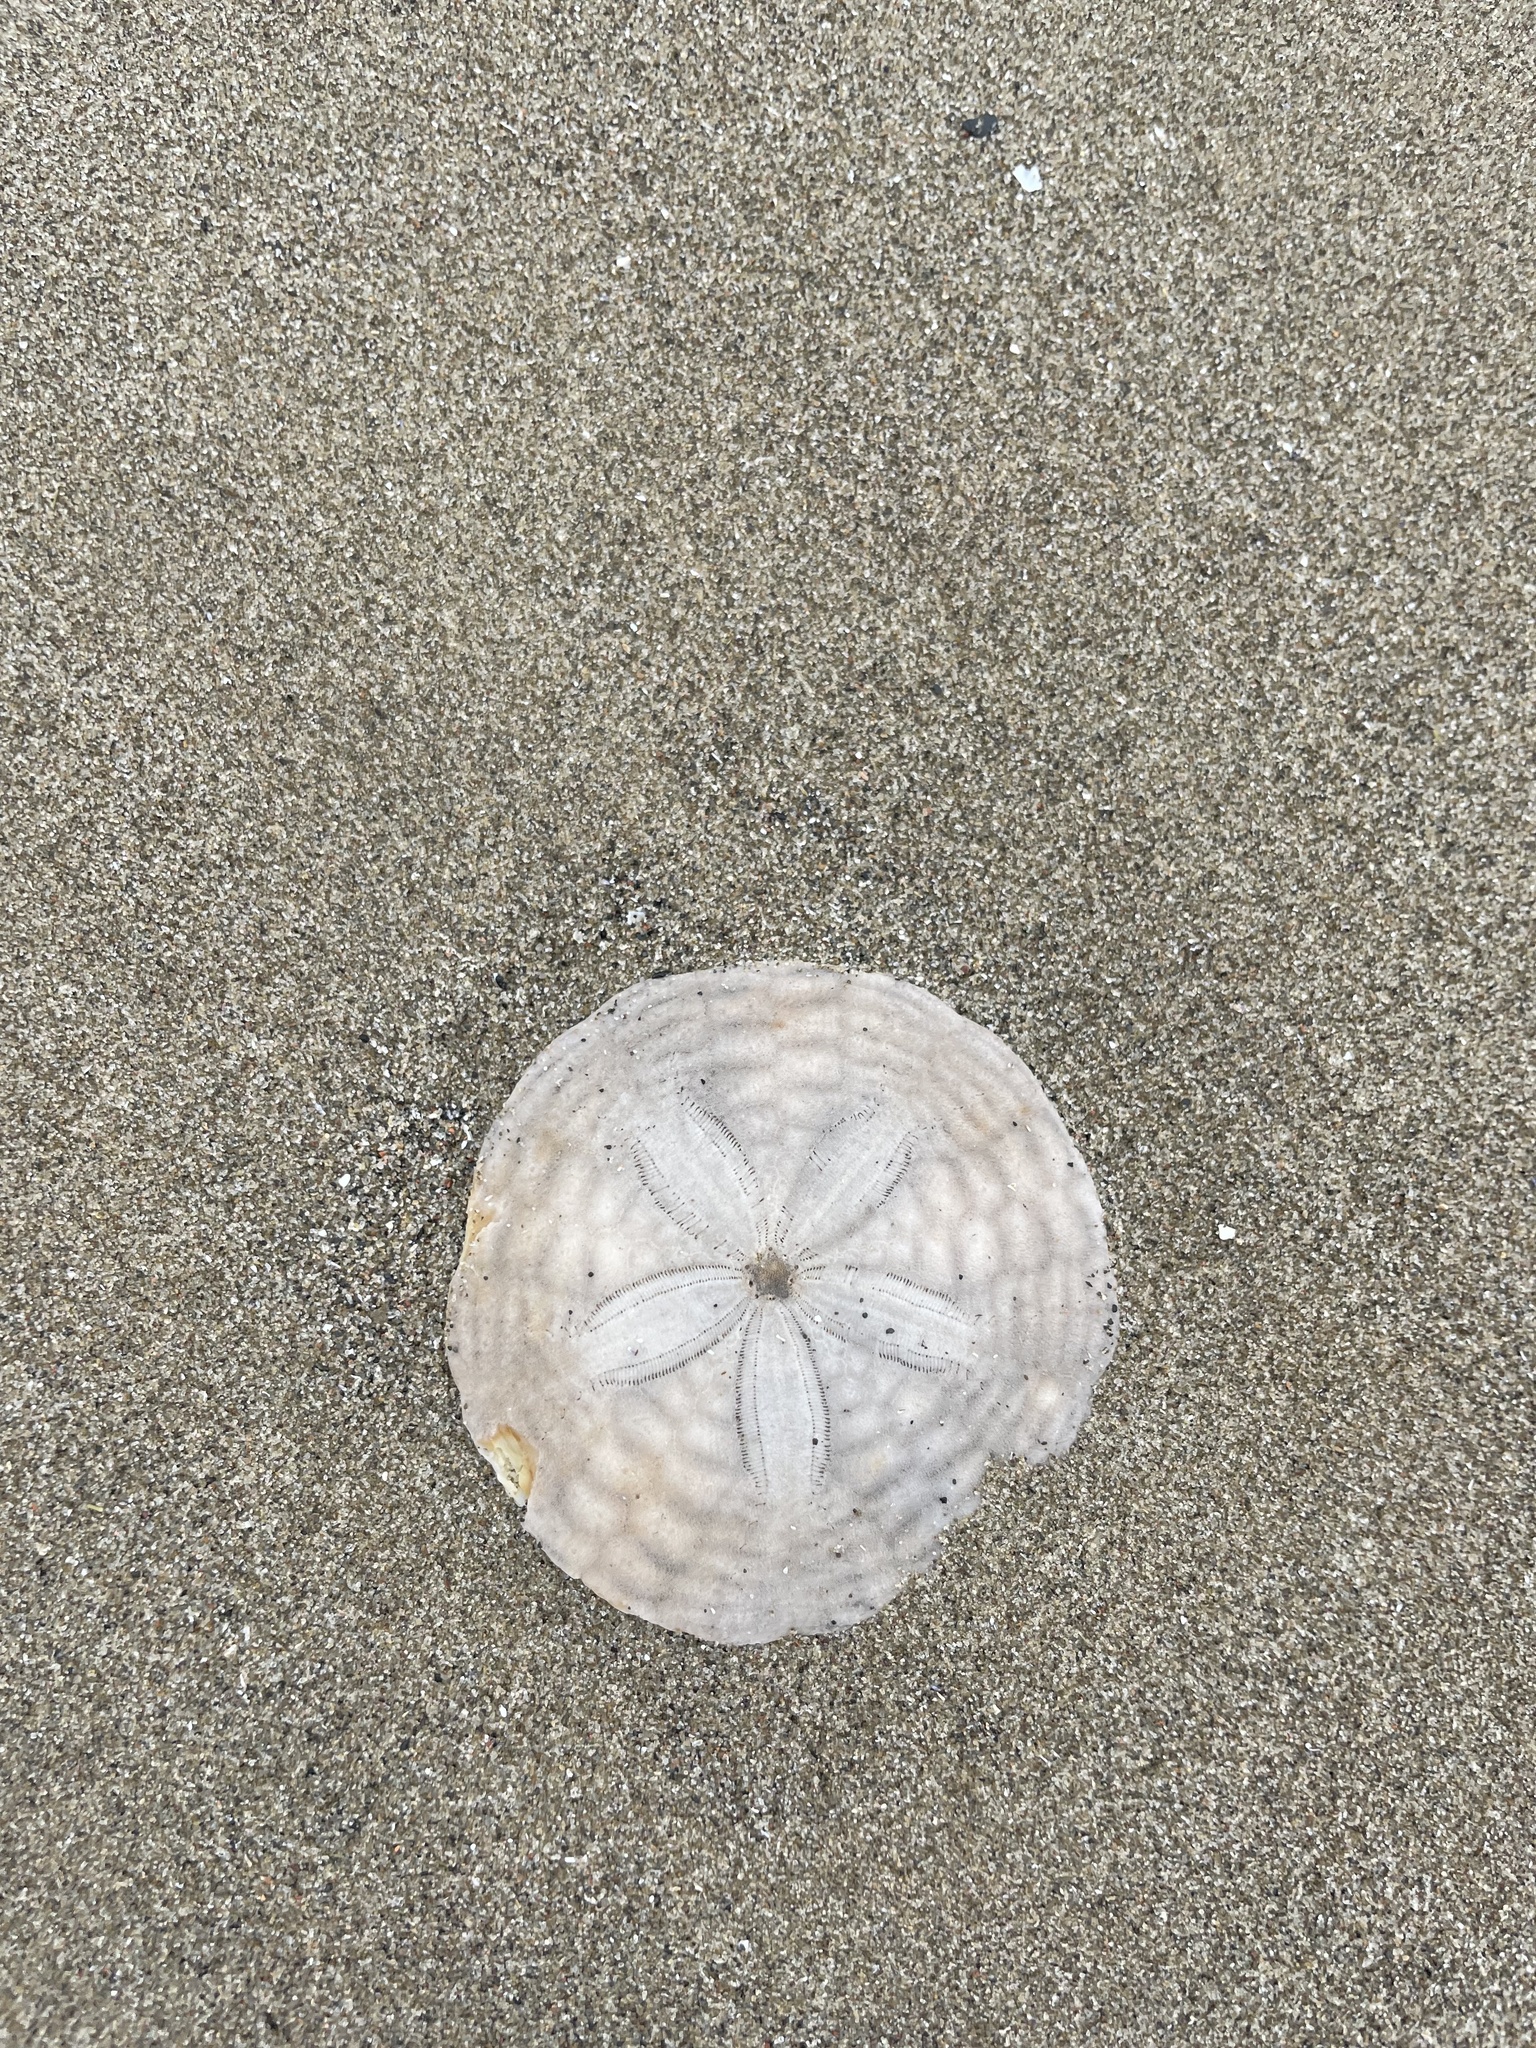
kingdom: Animalia
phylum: Echinodermata
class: Echinoidea
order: Echinolampadacea
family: Echinarachniidae
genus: Echinarachnius
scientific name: Echinarachnius parma
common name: Common sand dollar
